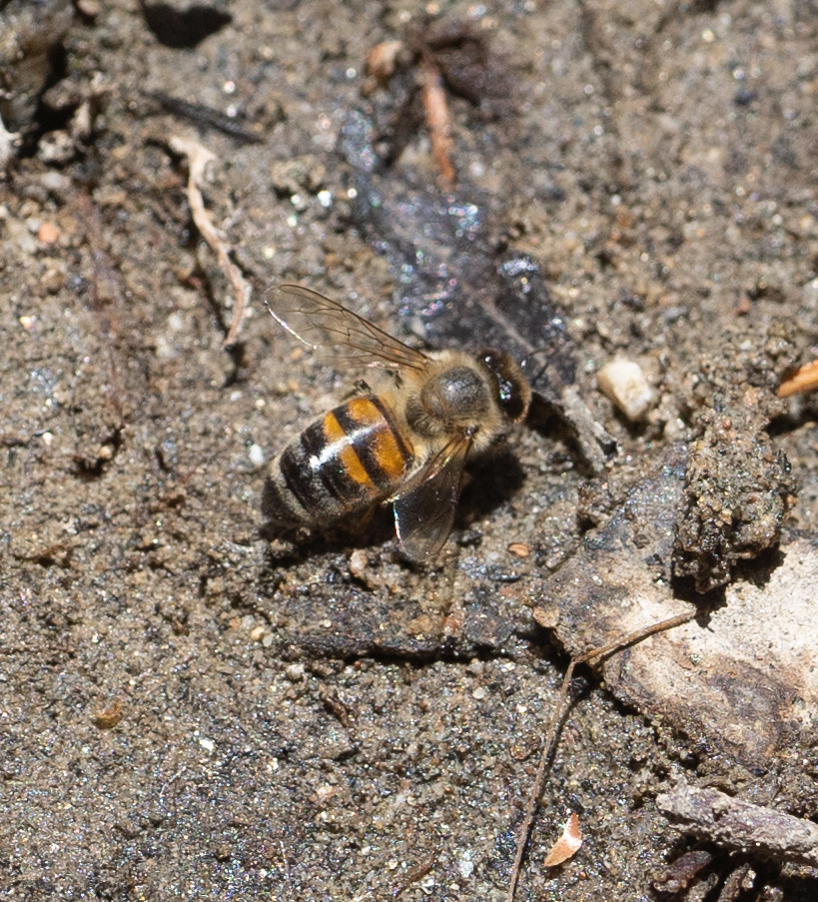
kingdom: Animalia
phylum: Arthropoda
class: Insecta
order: Hymenoptera
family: Apidae
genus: Apis
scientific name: Apis mellifera
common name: Honey bee
